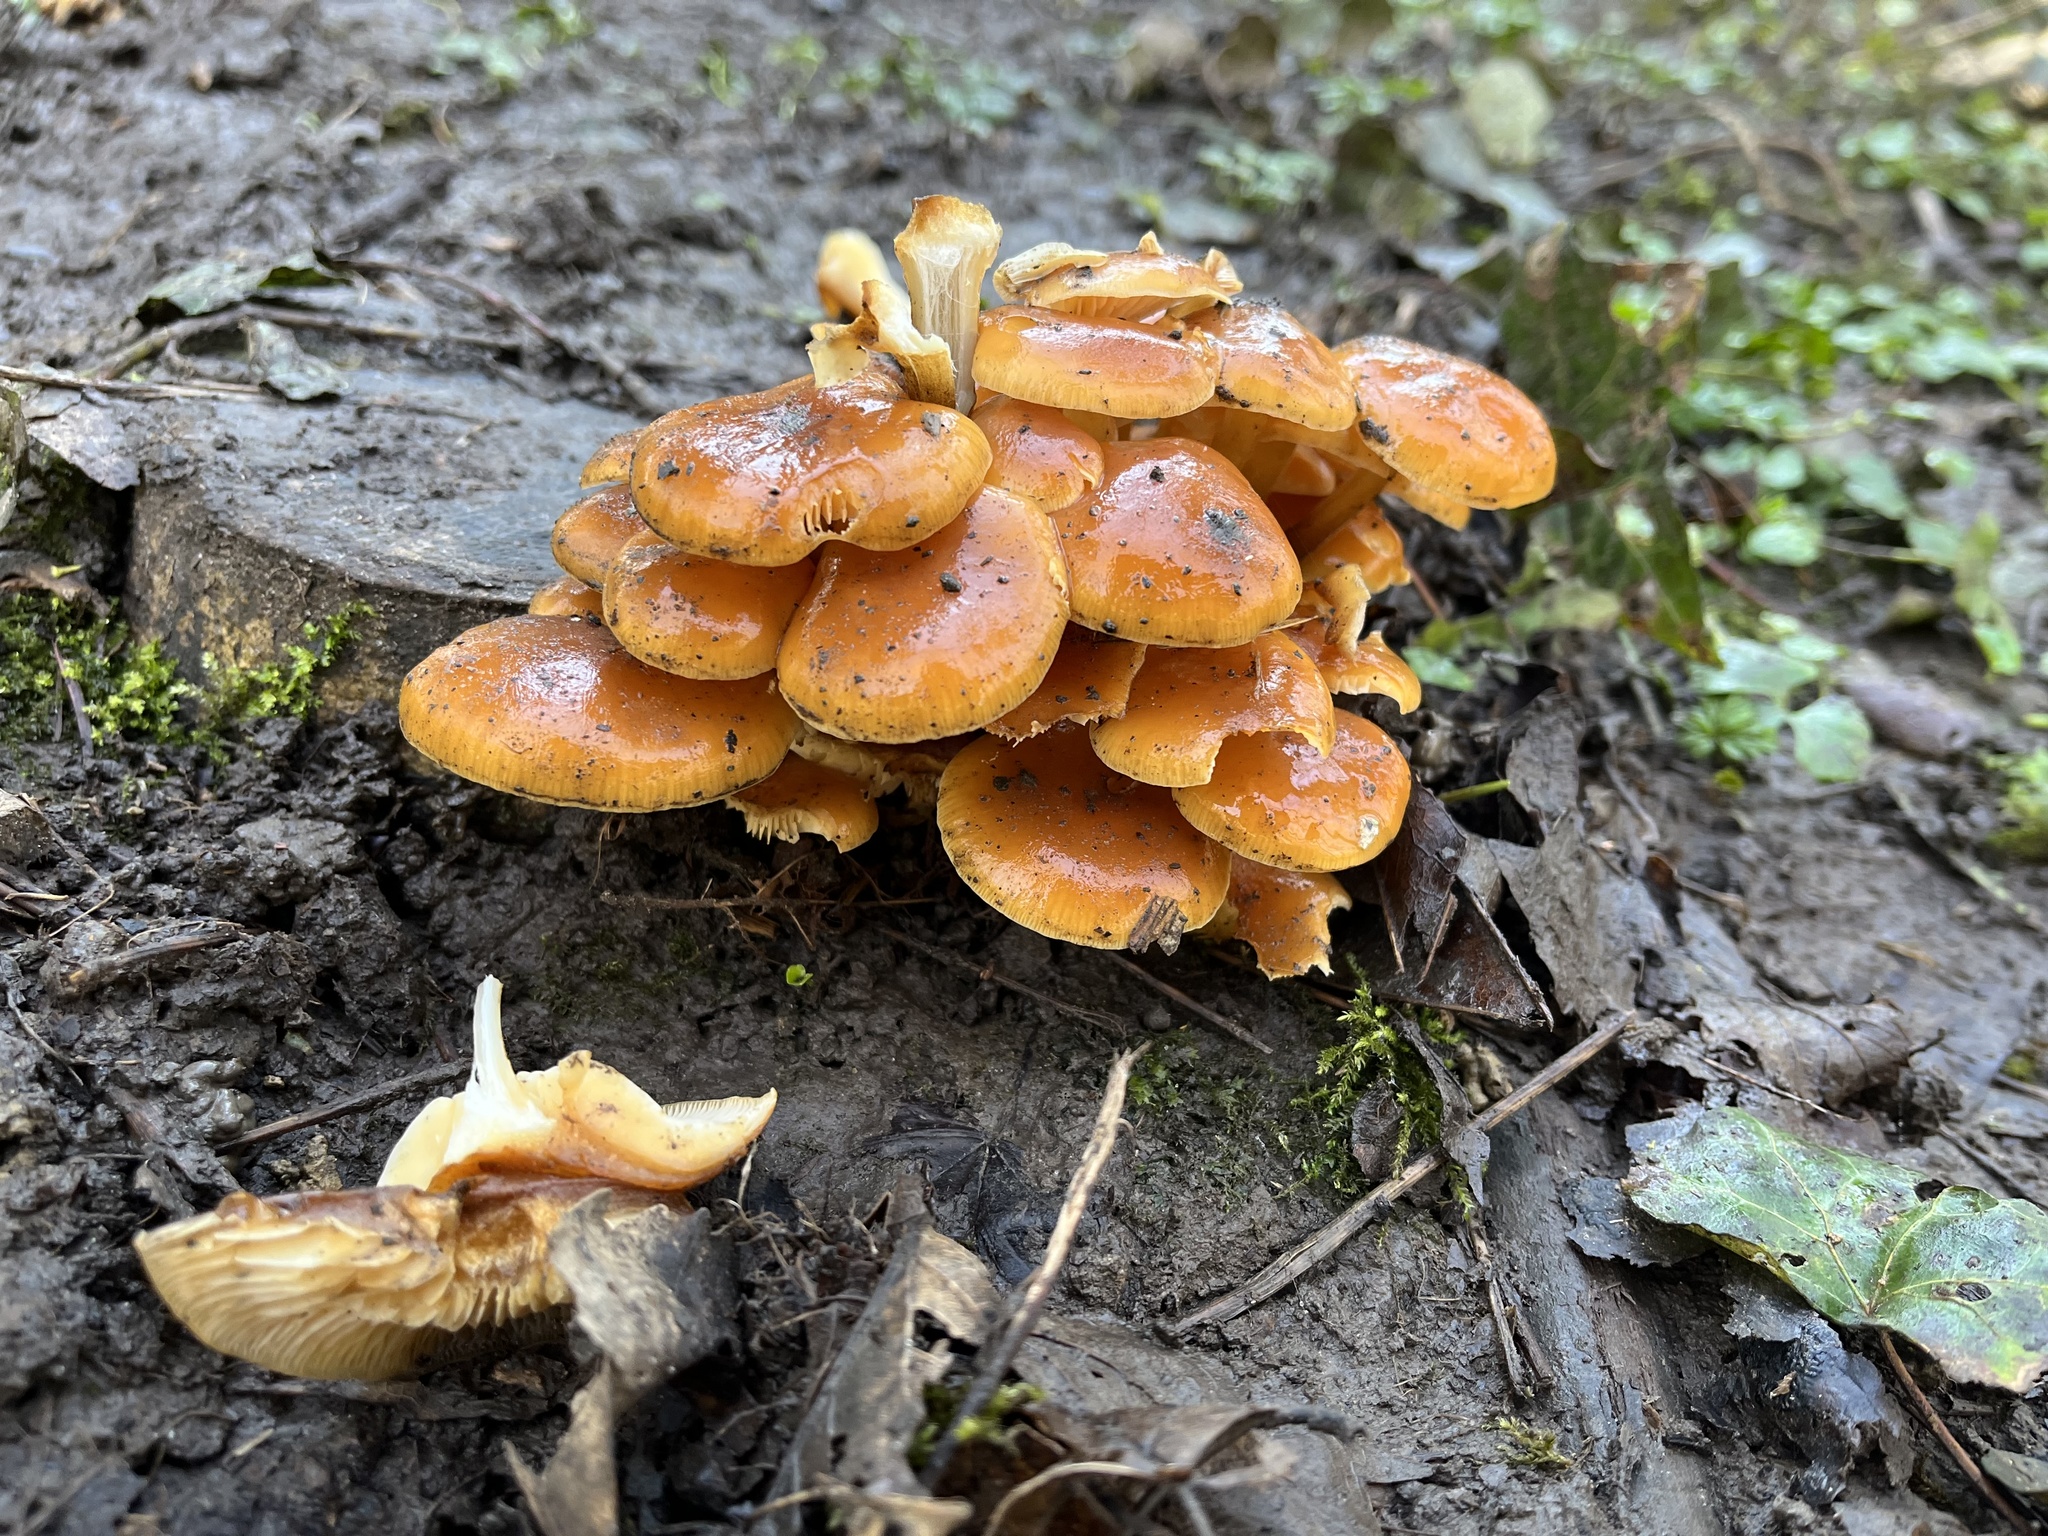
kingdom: Fungi
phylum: Basidiomycota
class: Agaricomycetes
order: Agaricales
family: Physalacriaceae
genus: Flammulina
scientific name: Flammulina
